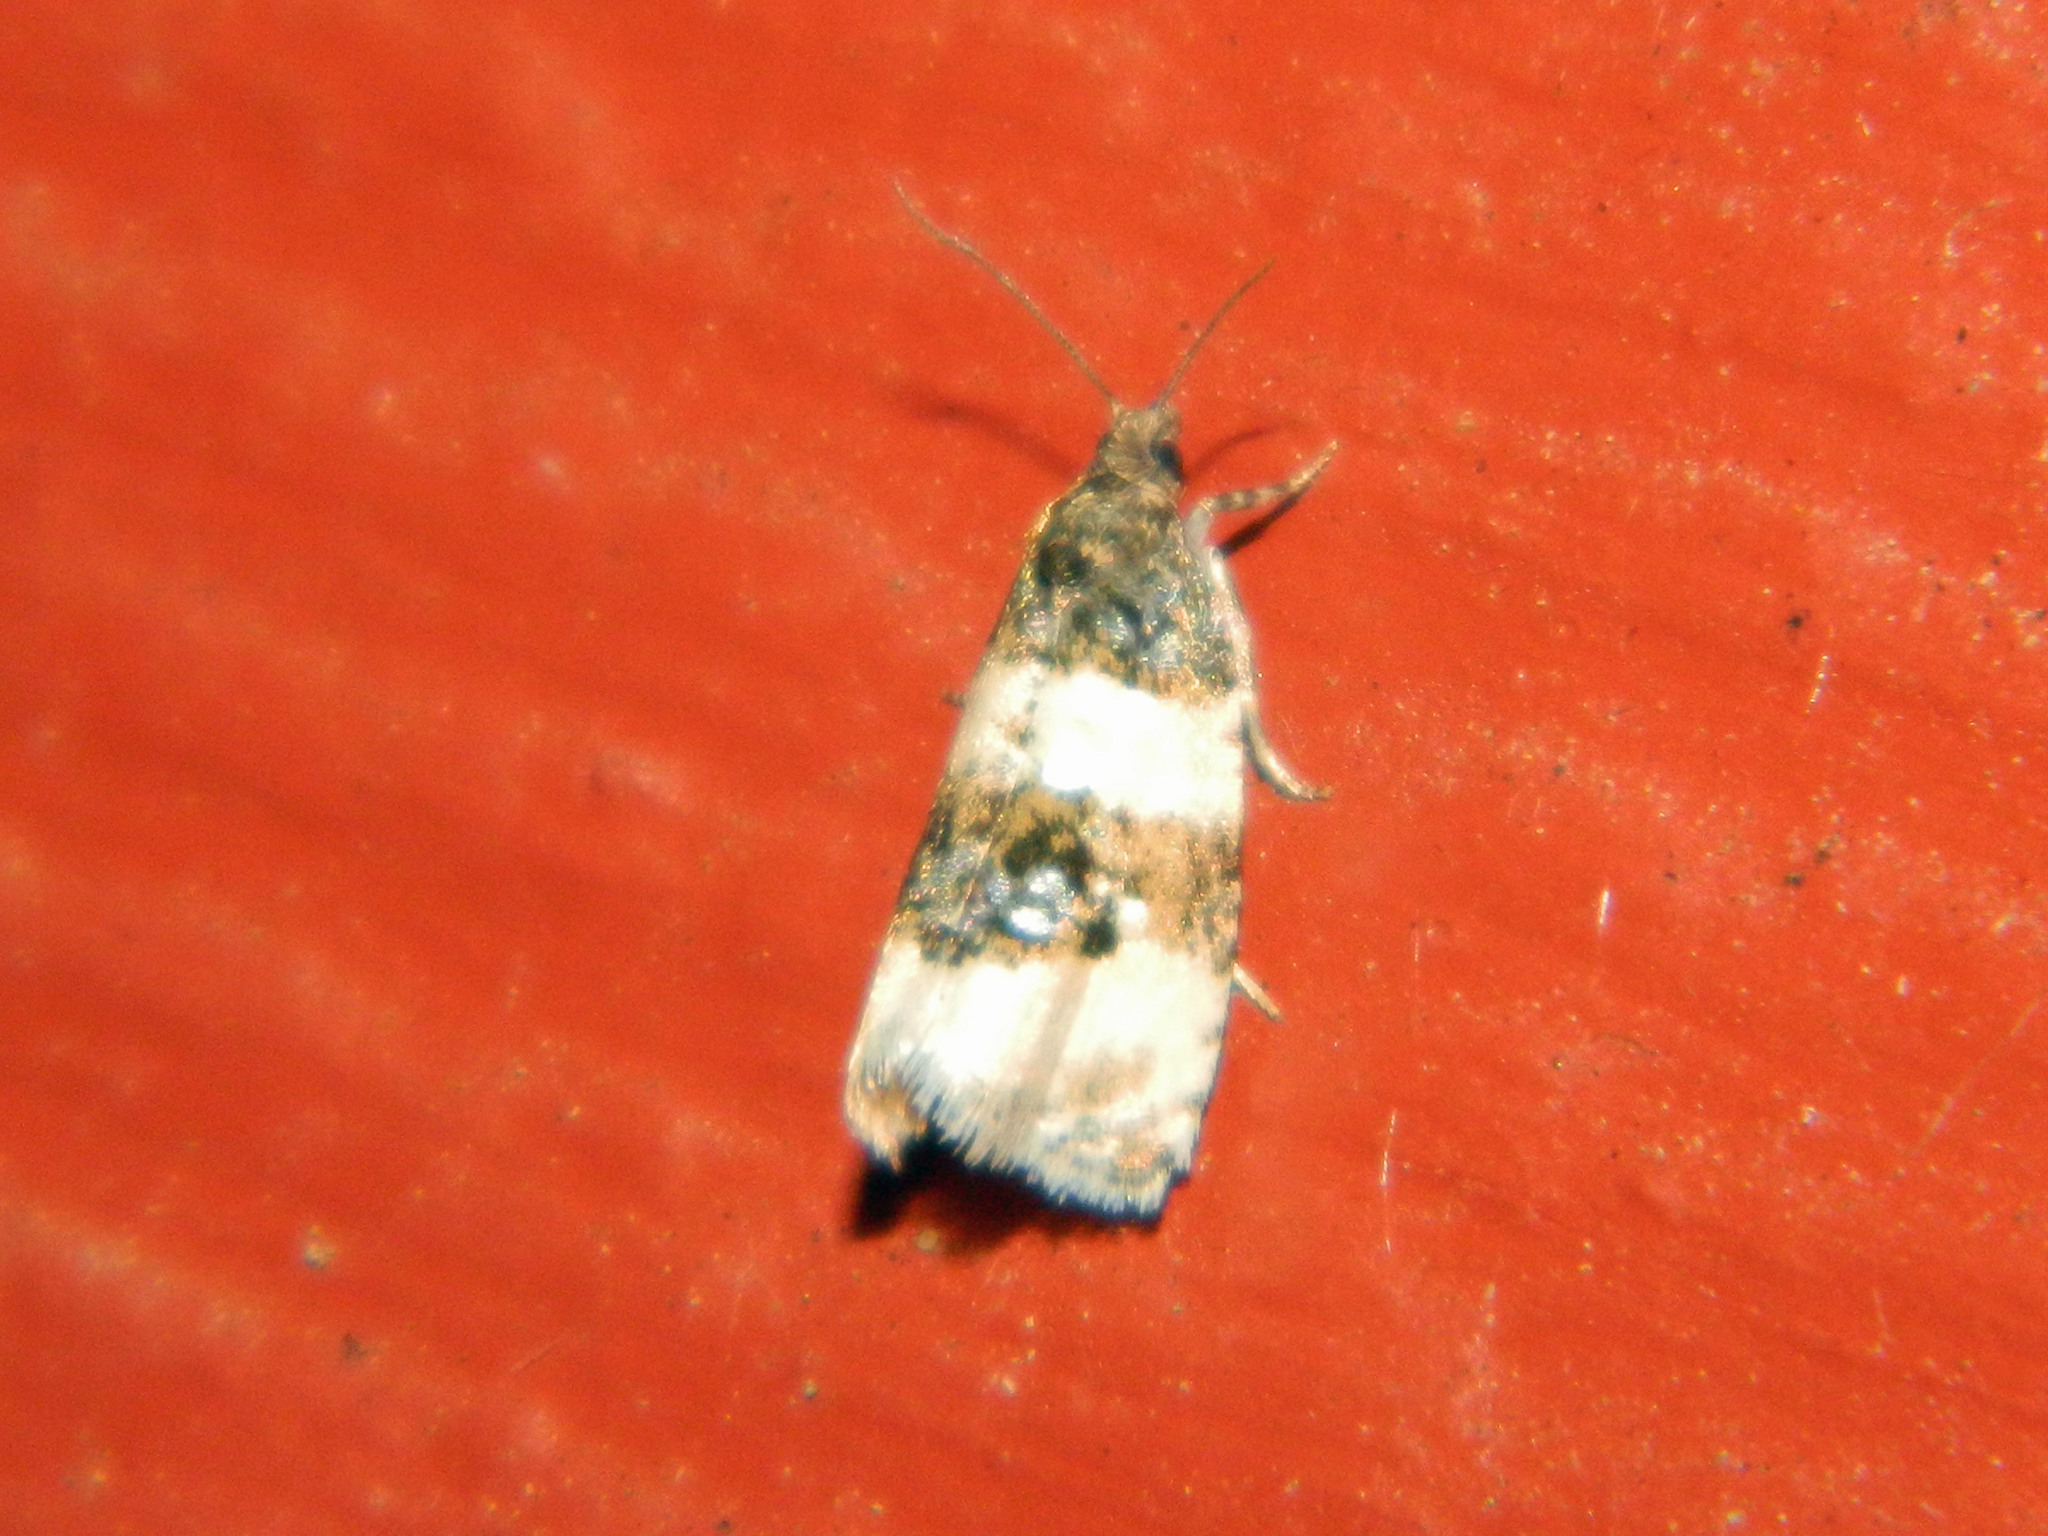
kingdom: Animalia
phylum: Arthropoda
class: Insecta
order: Lepidoptera
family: Tortricidae
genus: Olethreutes
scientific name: Olethreutes bipartitana
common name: Divided olethreutes moth
